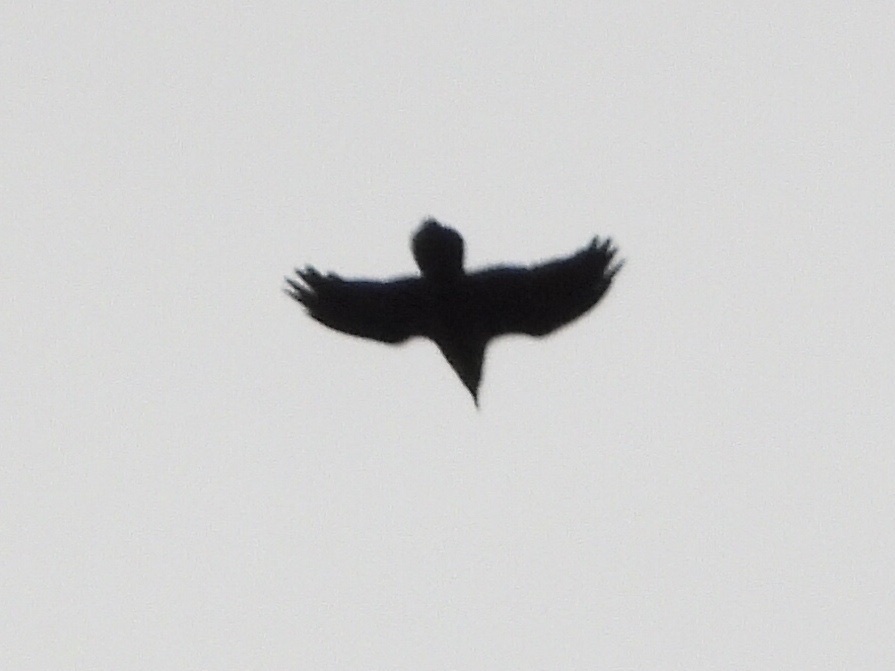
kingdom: Animalia
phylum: Chordata
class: Aves
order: Passeriformes
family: Corvidae
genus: Corvus
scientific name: Corvus corax
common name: Common raven
